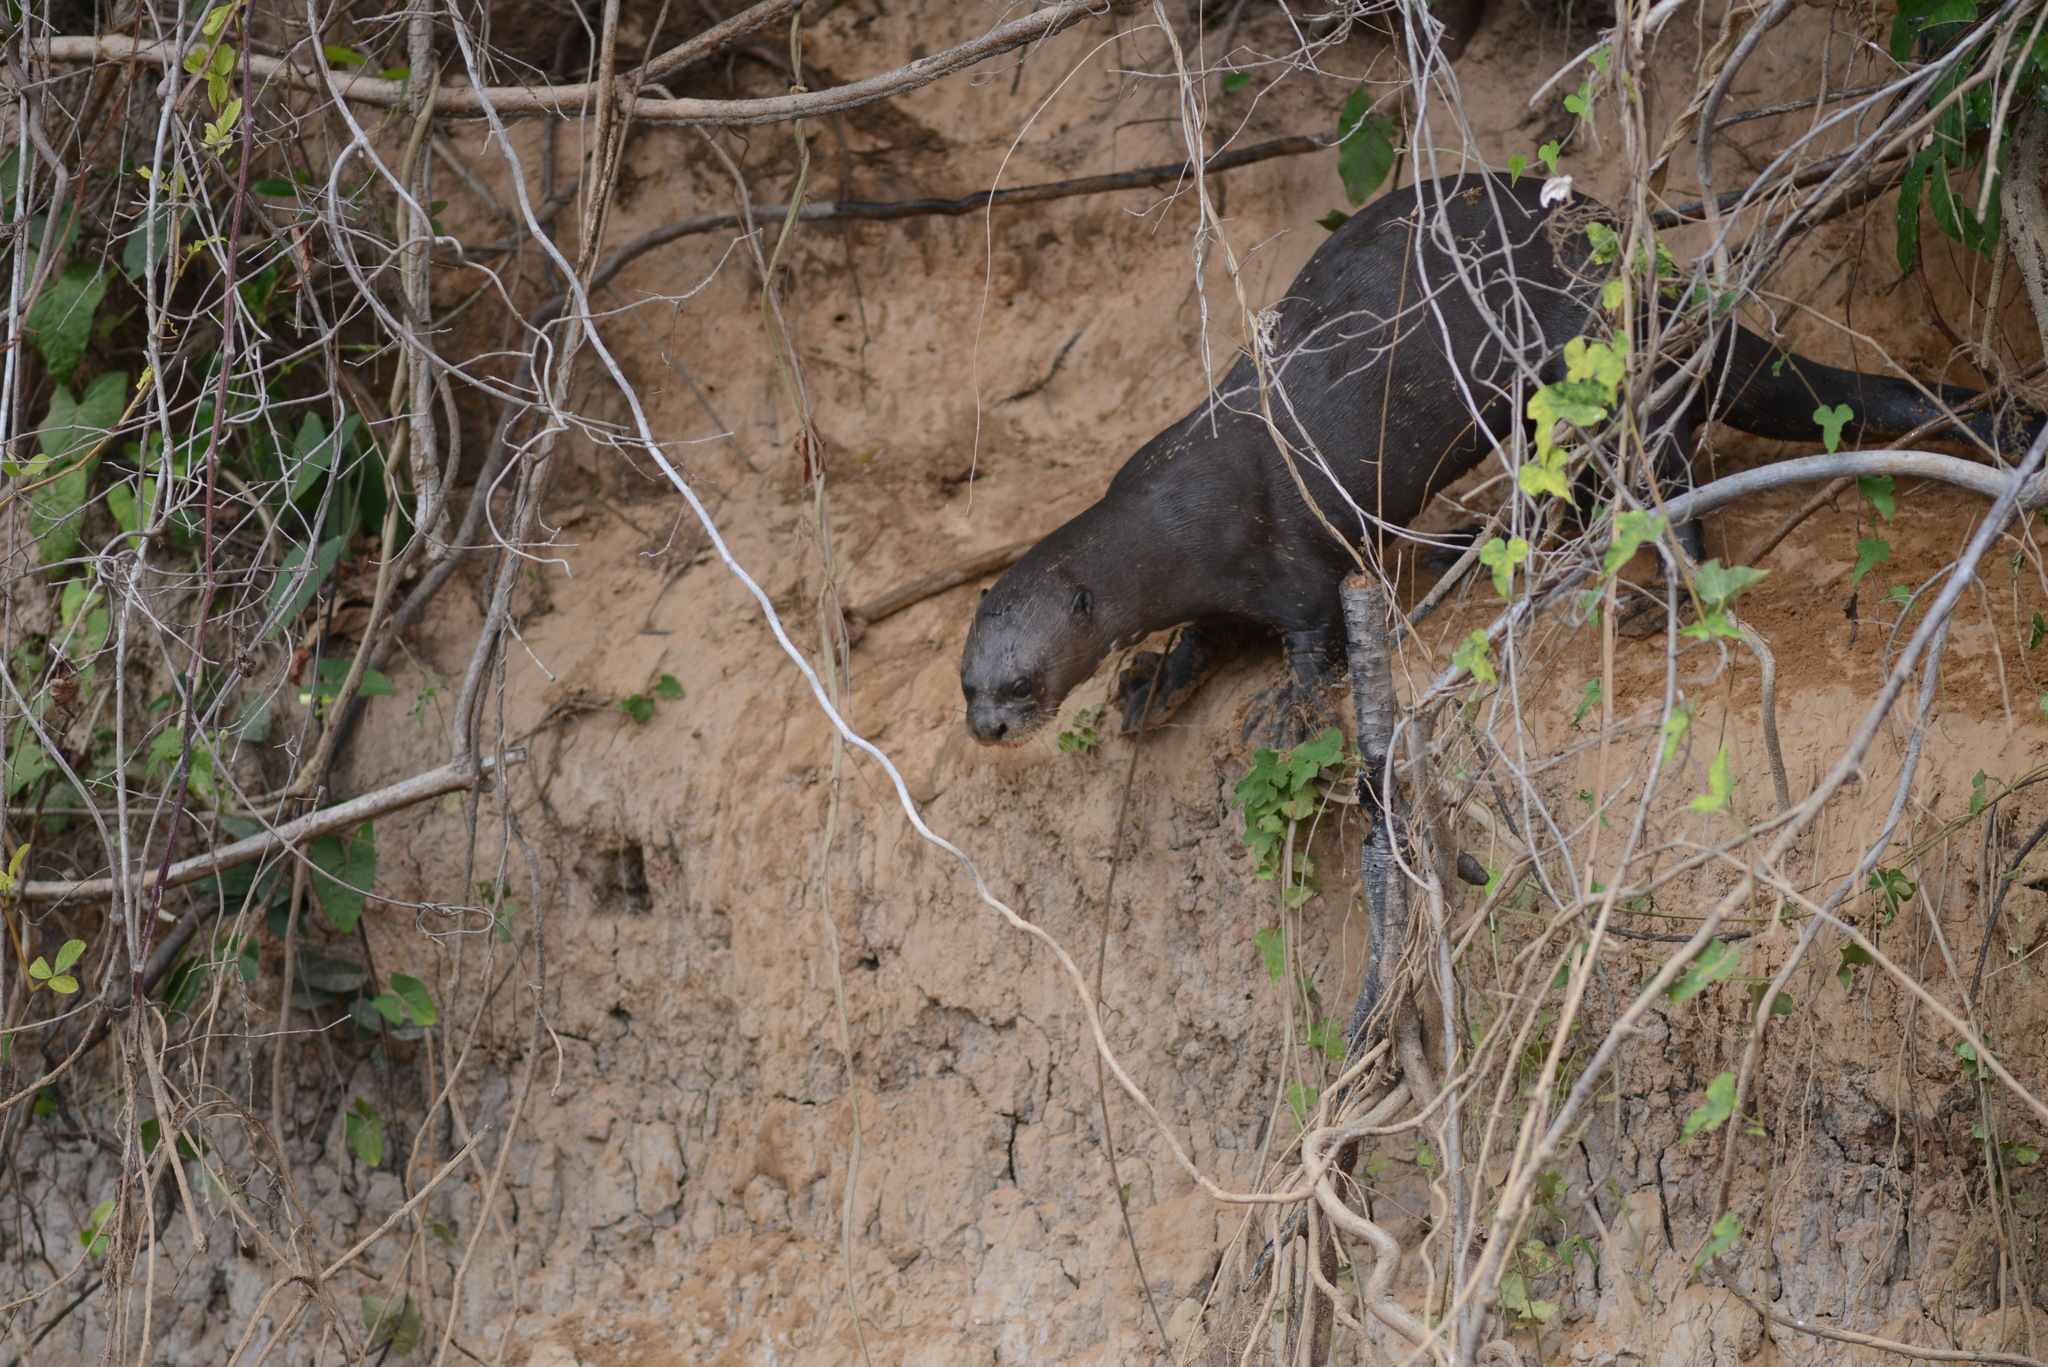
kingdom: Animalia
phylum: Chordata
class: Mammalia
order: Carnivora
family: Mustelidae
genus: Pteronura
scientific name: Pteronura brasiliensis
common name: Giant otter
